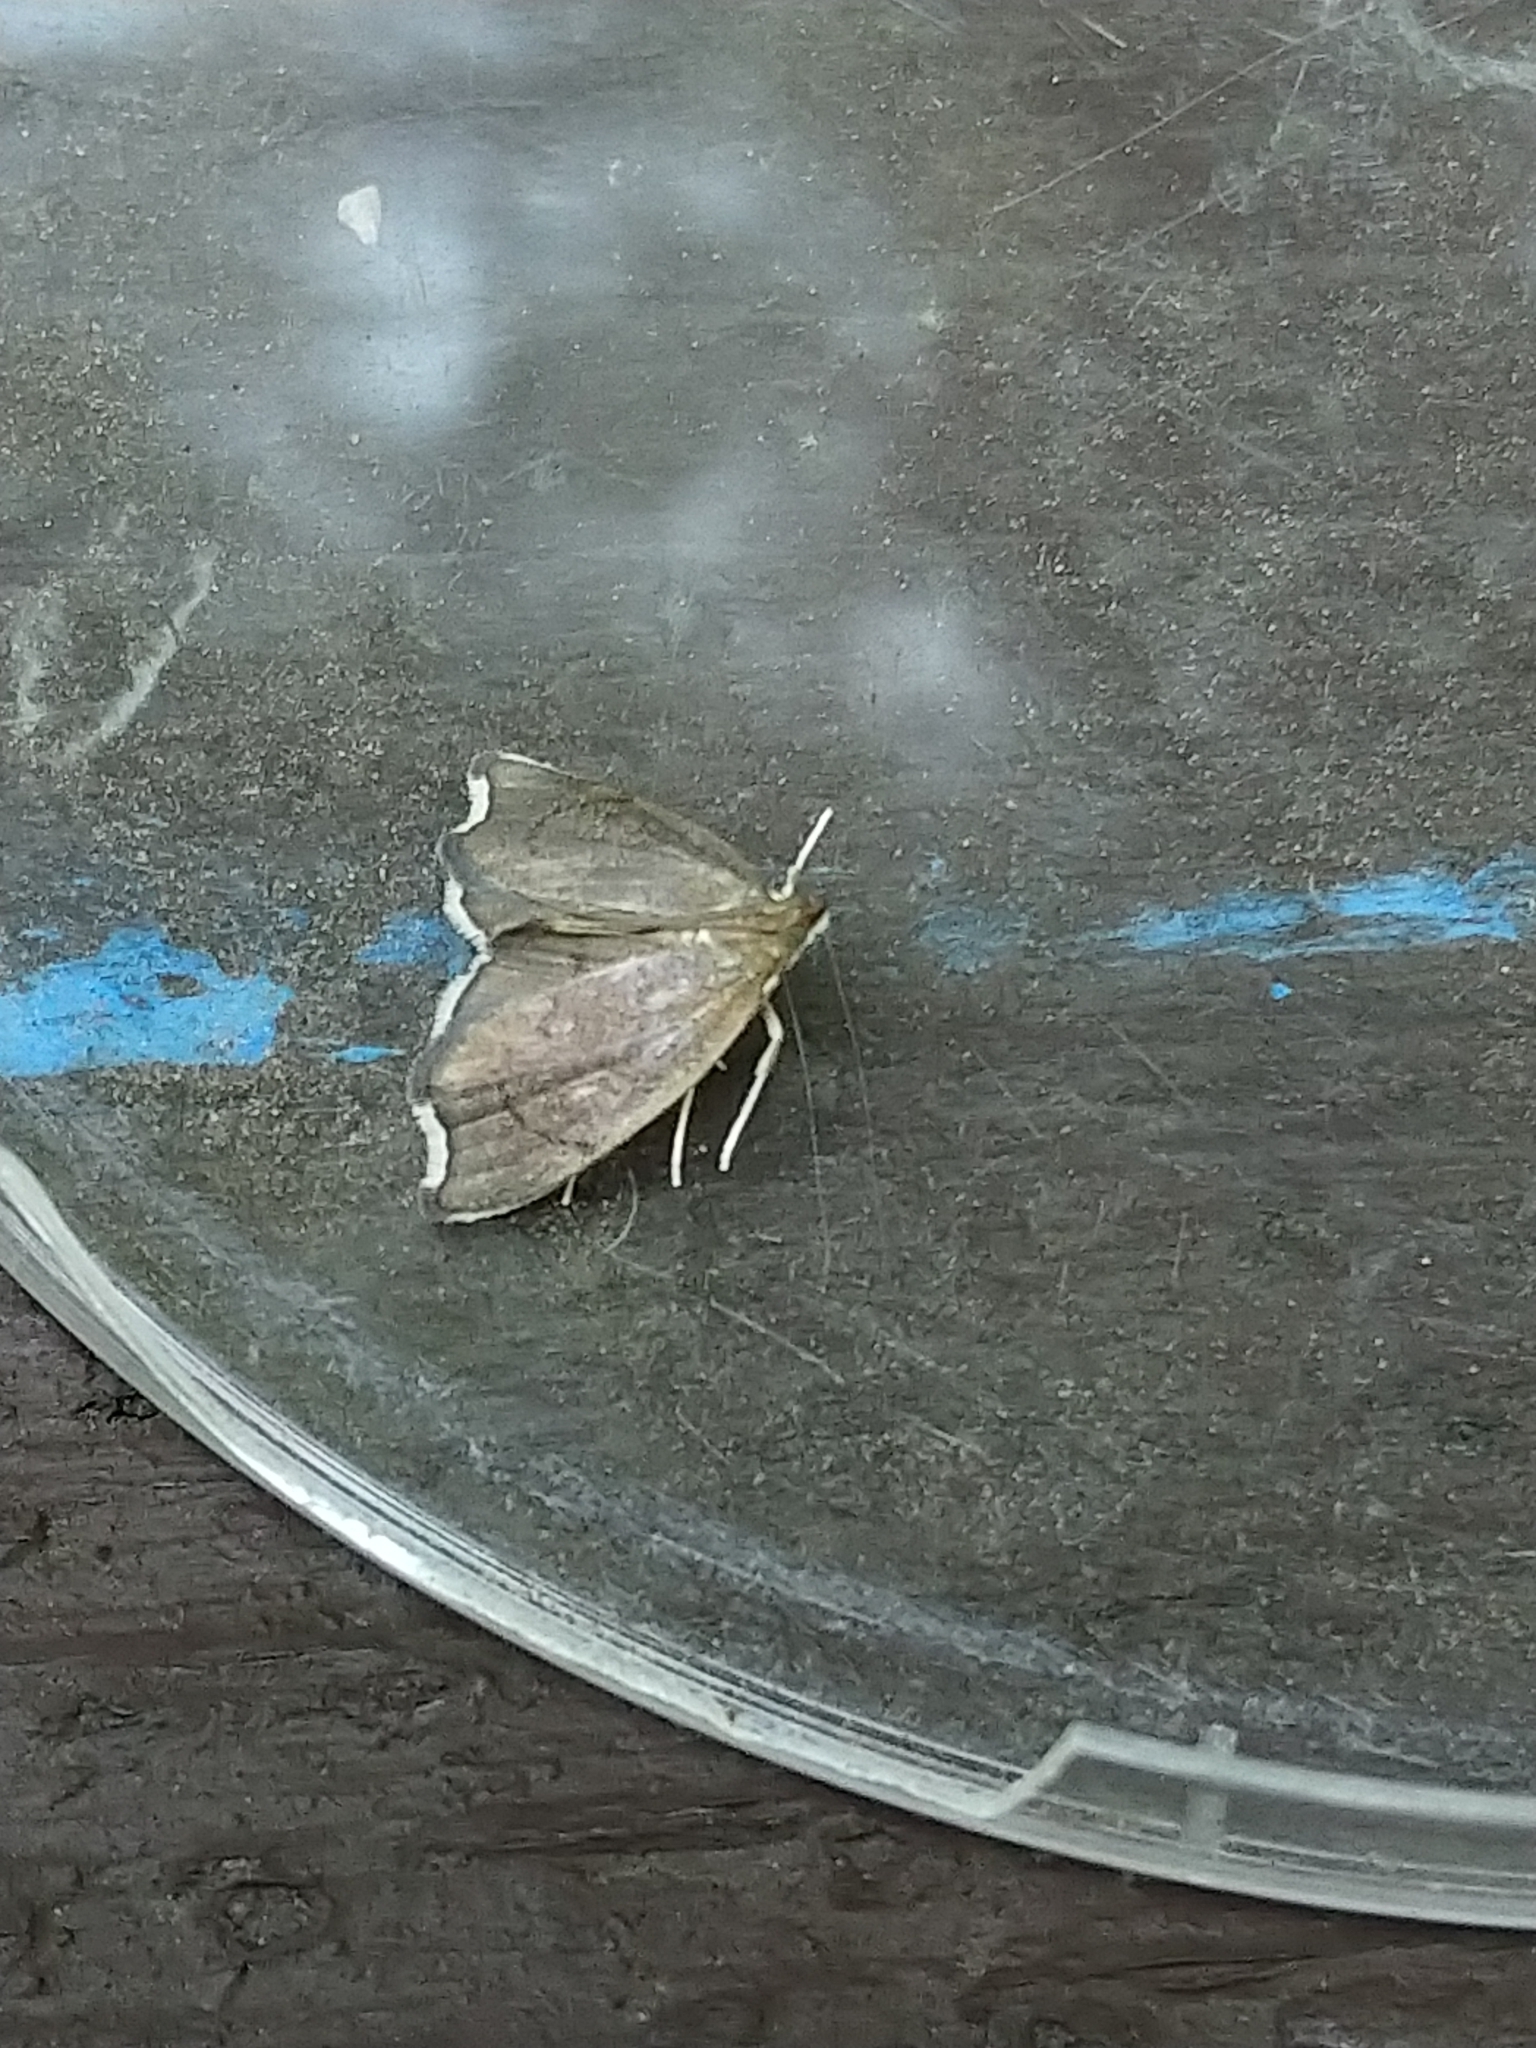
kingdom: Animalia
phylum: Arthropoda
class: Insecta
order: Lepidoptera
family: Crambidae
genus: Perispasta
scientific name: Perispasta caeculalis
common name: Titian peale's moth
